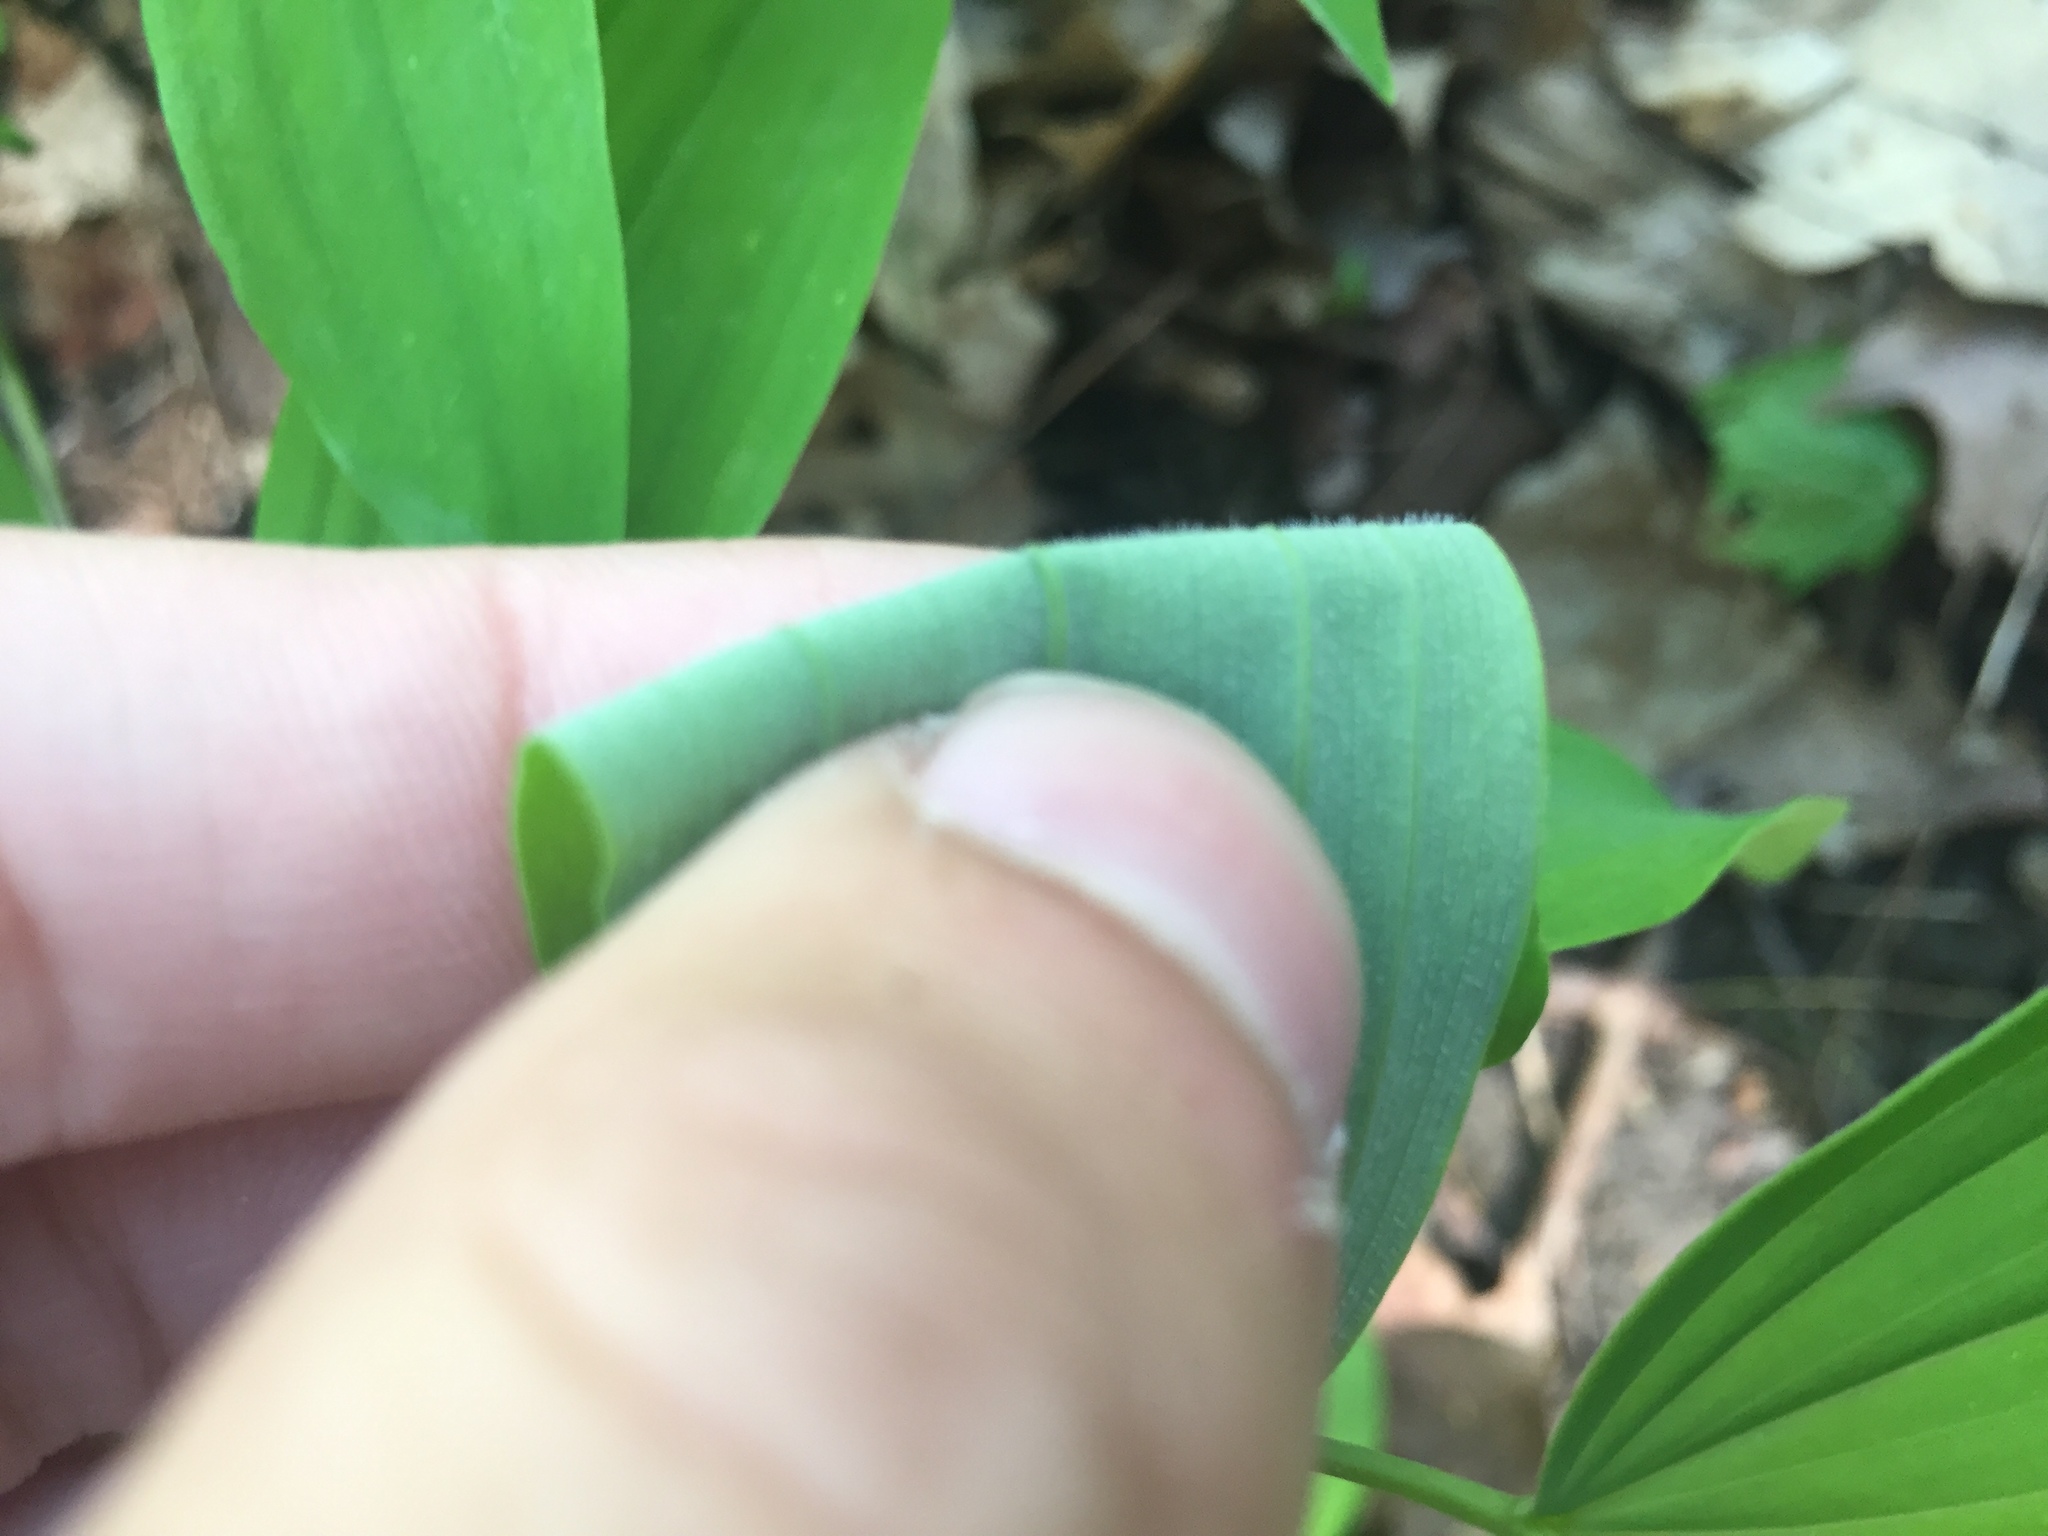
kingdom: Plantae
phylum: Tracheophyta
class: Liliopsida
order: Asparagales
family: Asparagaceae
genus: Polygonatum
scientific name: Polygonatum pubescens
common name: Downy solomon's seal
